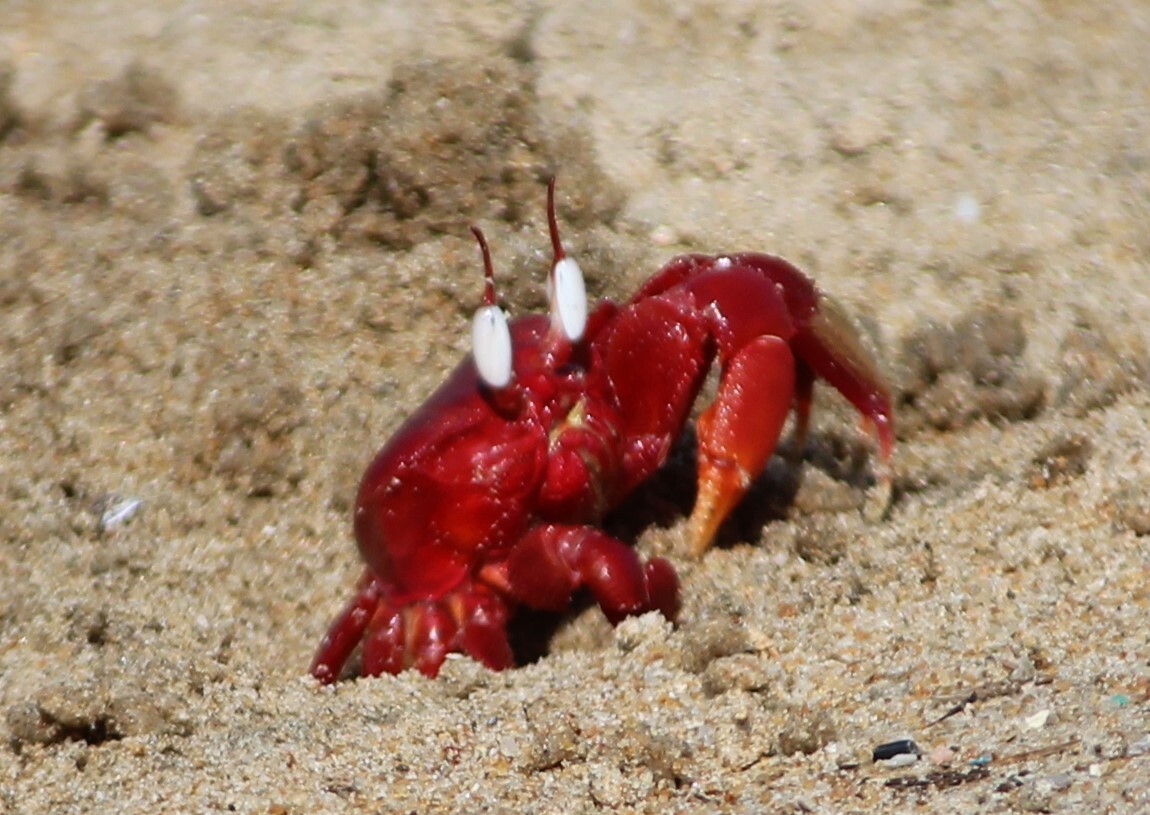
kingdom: Animalia
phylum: Arthropoda
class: Malacostraca
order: Decapoda
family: Ocypodidae
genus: Ocypode
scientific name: Ocypode macrocera
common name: Red ghost crab
